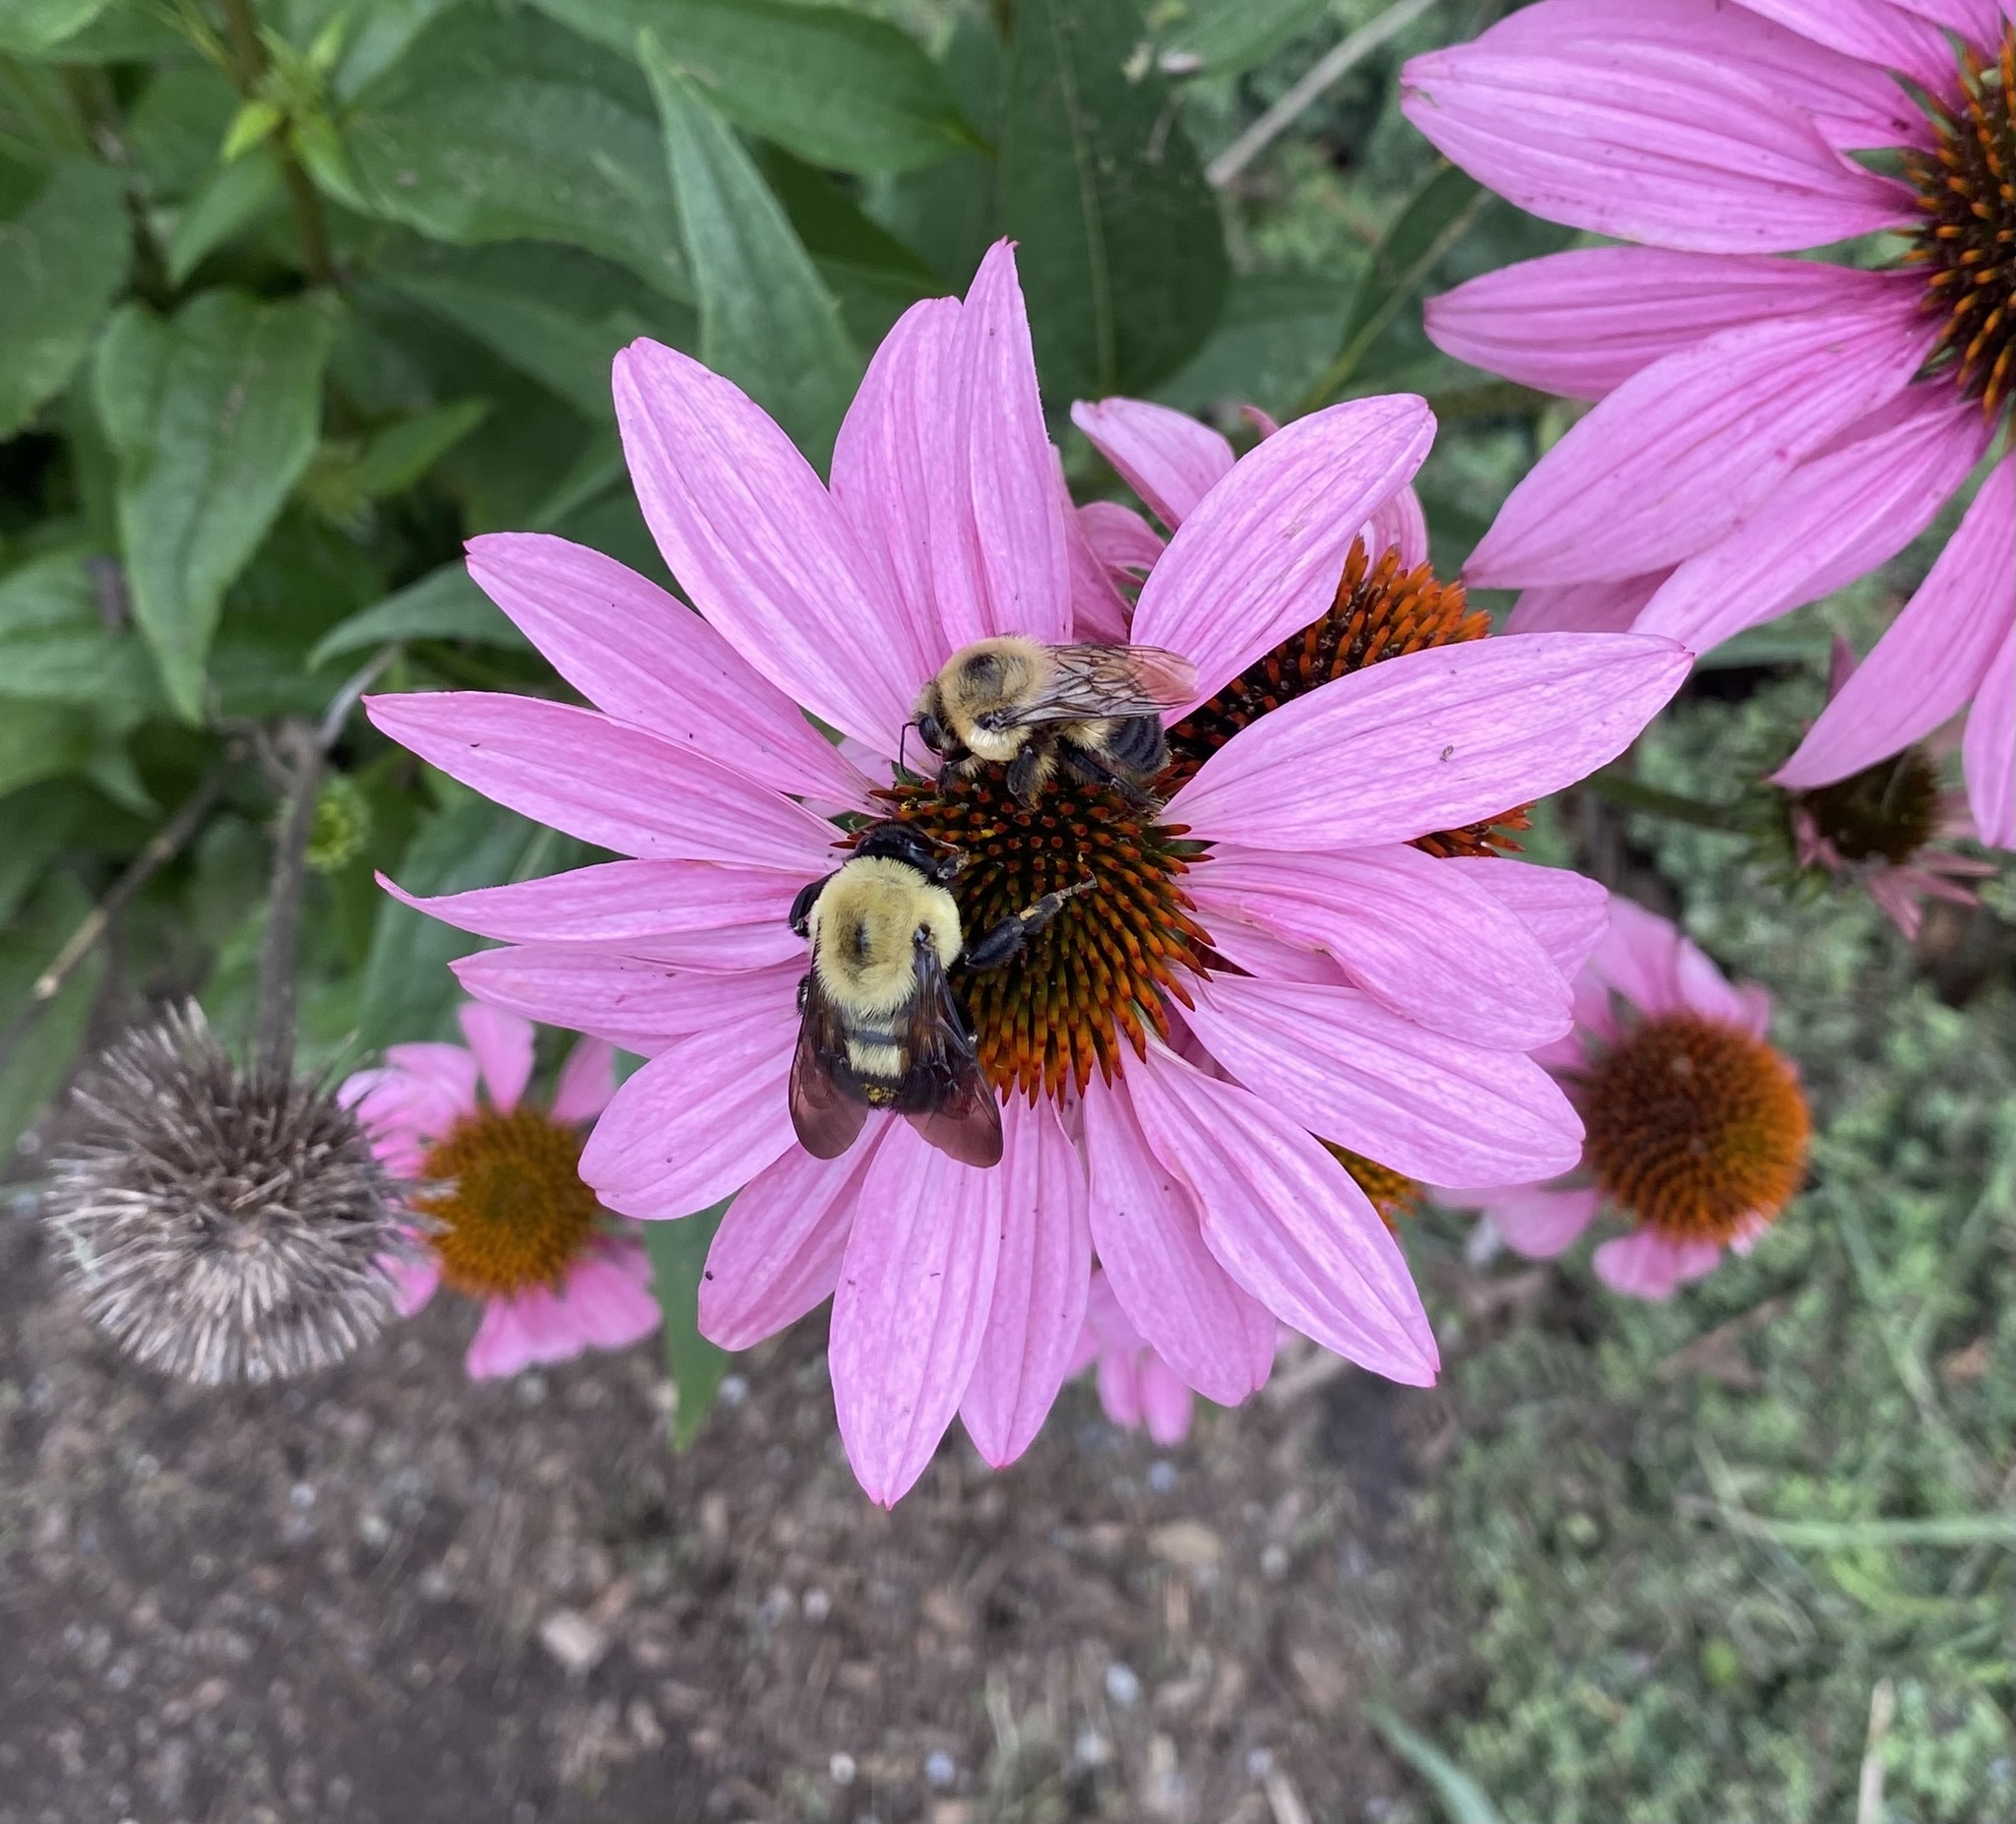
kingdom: Animalia
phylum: Arthropoda
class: Insecta
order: Hymenoptera
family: Apidae
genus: Bombus
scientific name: Bombus griseocollis
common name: Brown-belted bumble bee
